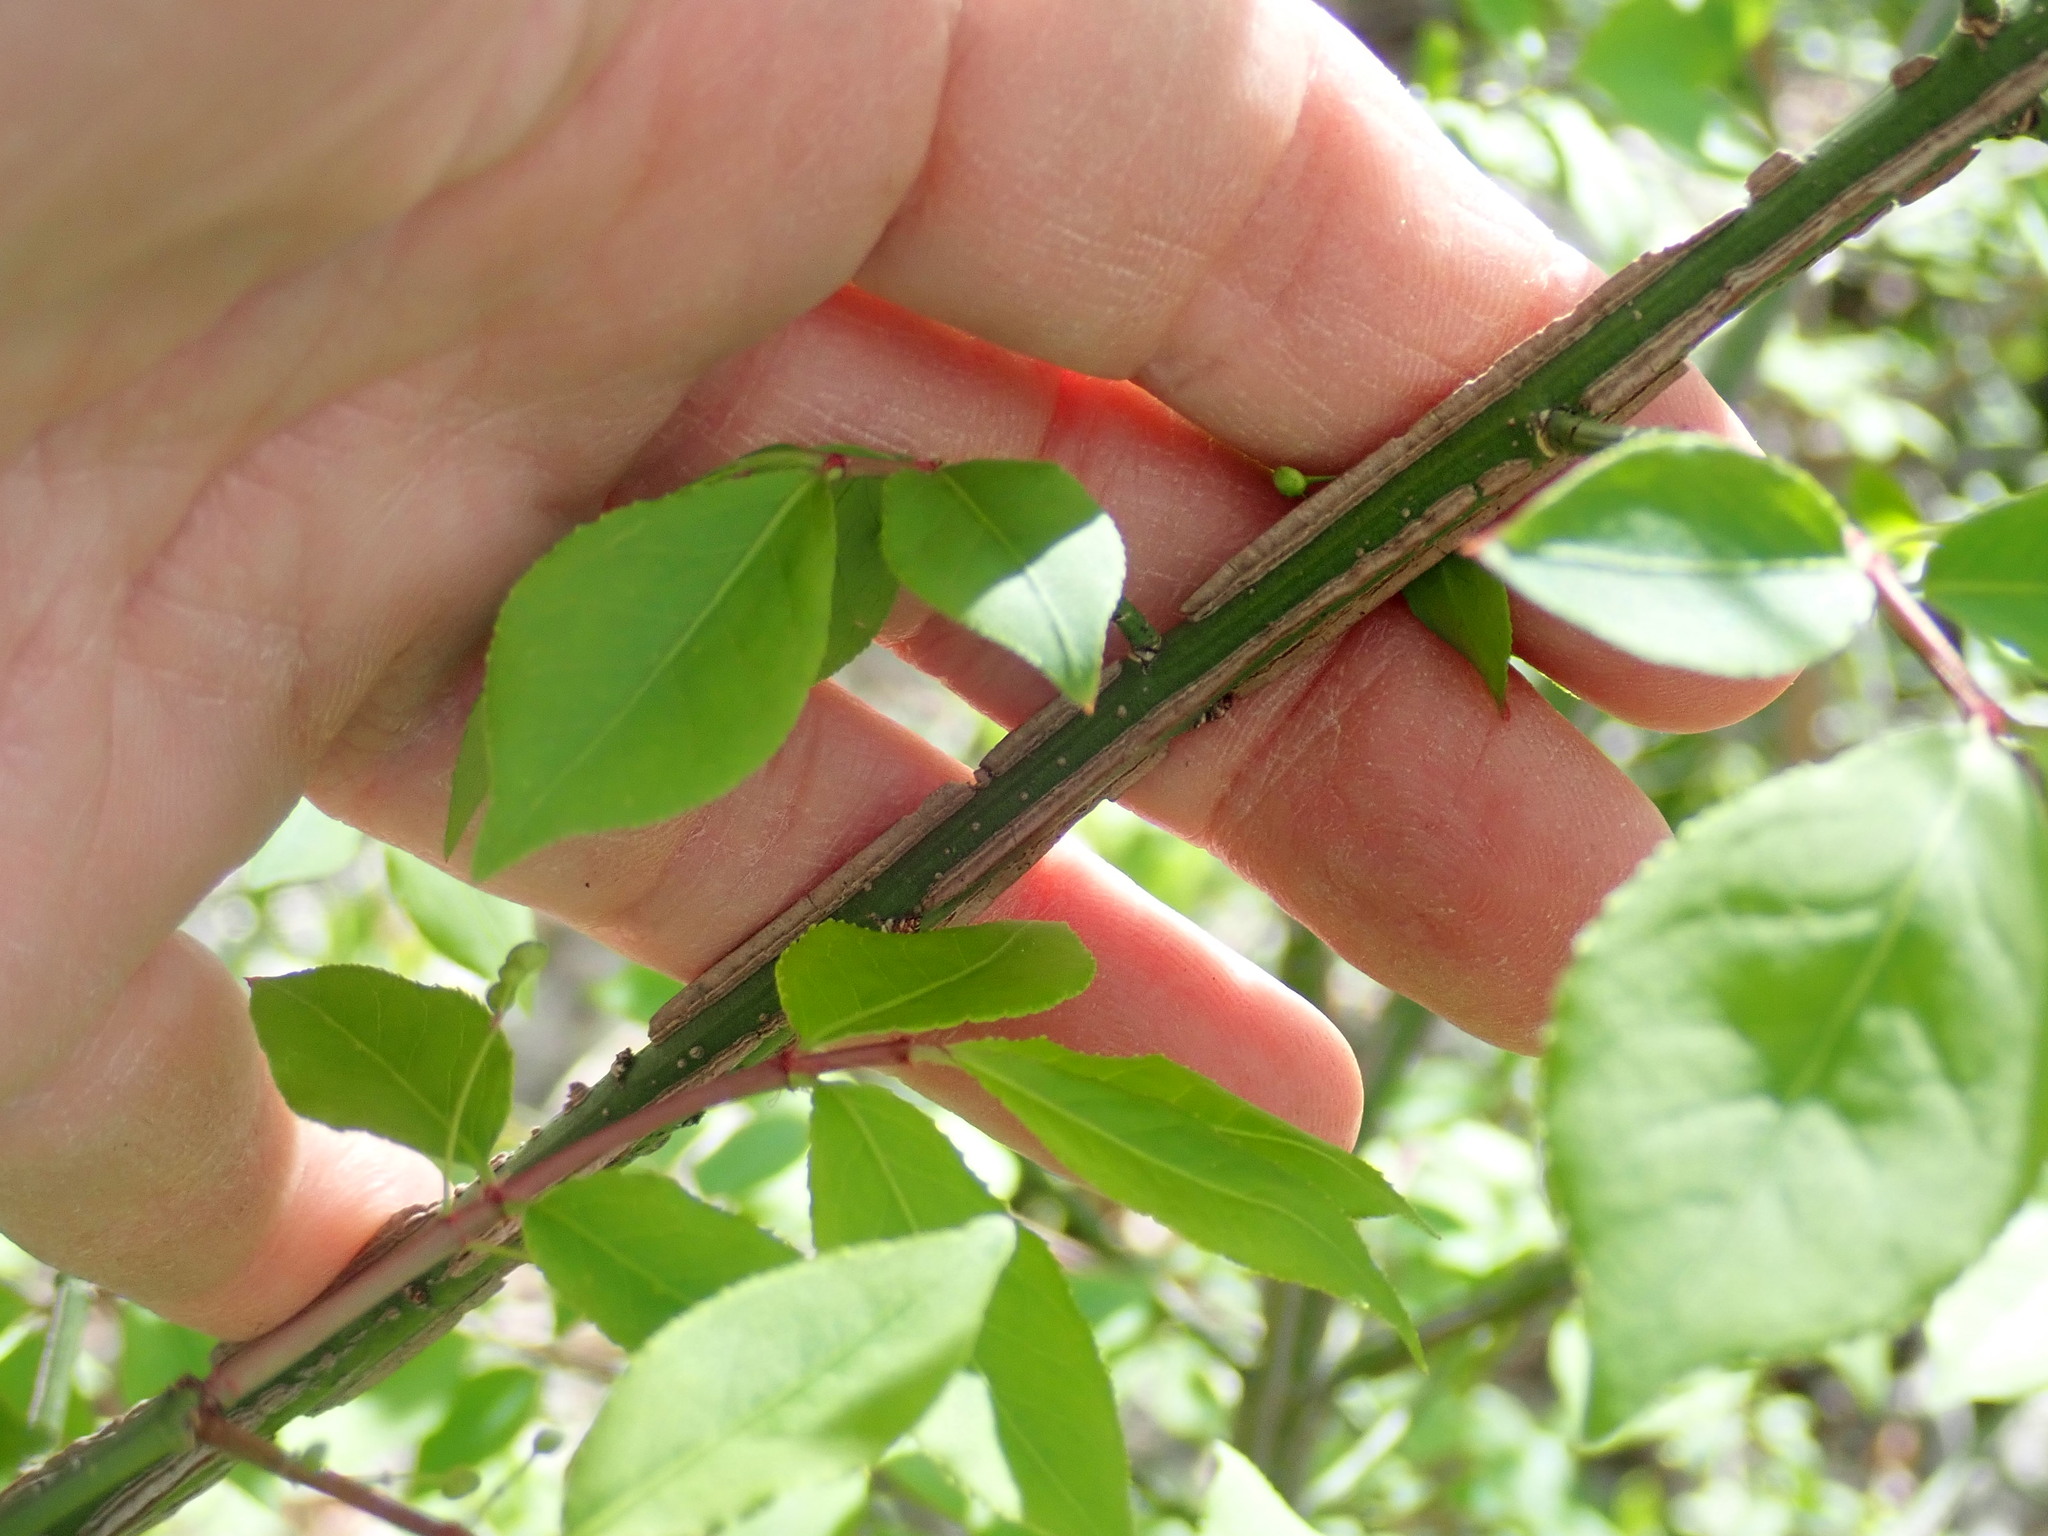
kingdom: Plantae
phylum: Tracheophyta
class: Magnoliopsida
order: Celastrales
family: Celastraceae
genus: Euonymus
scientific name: Euonymus alatus
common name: Winged euonymus
